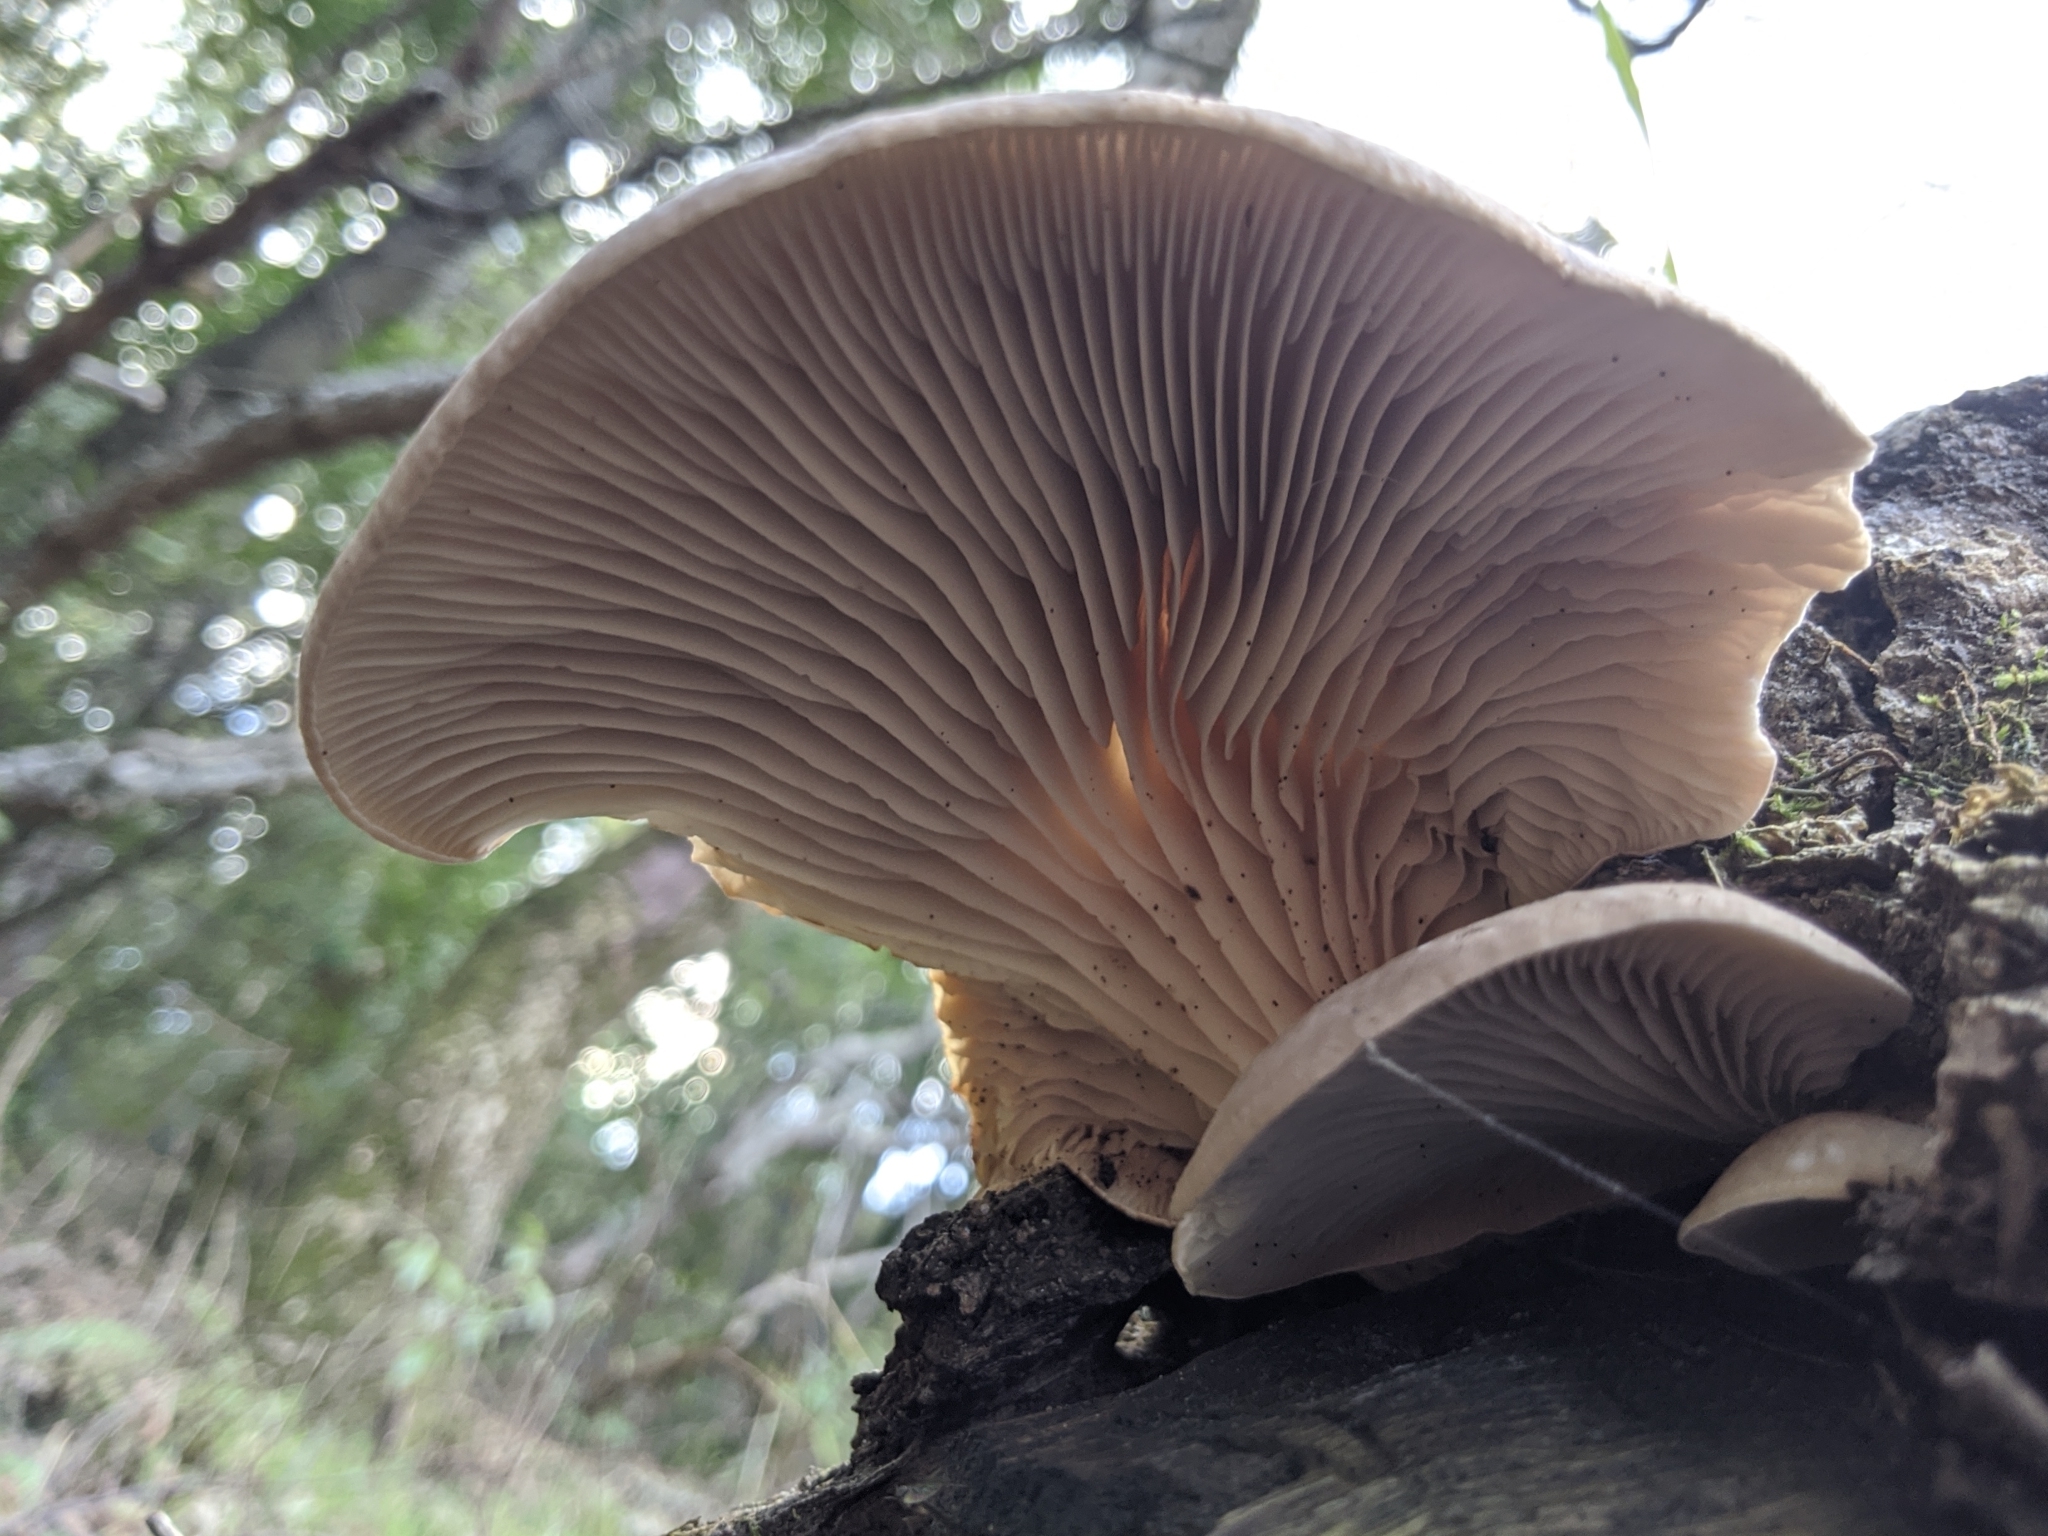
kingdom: Fungi
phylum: Basidiomycota
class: Agaricomycetes
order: Agaricales
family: Pleurotaceae
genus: Pleurotus
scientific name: Pleurotus ostreatus
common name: Oyster mushroom
